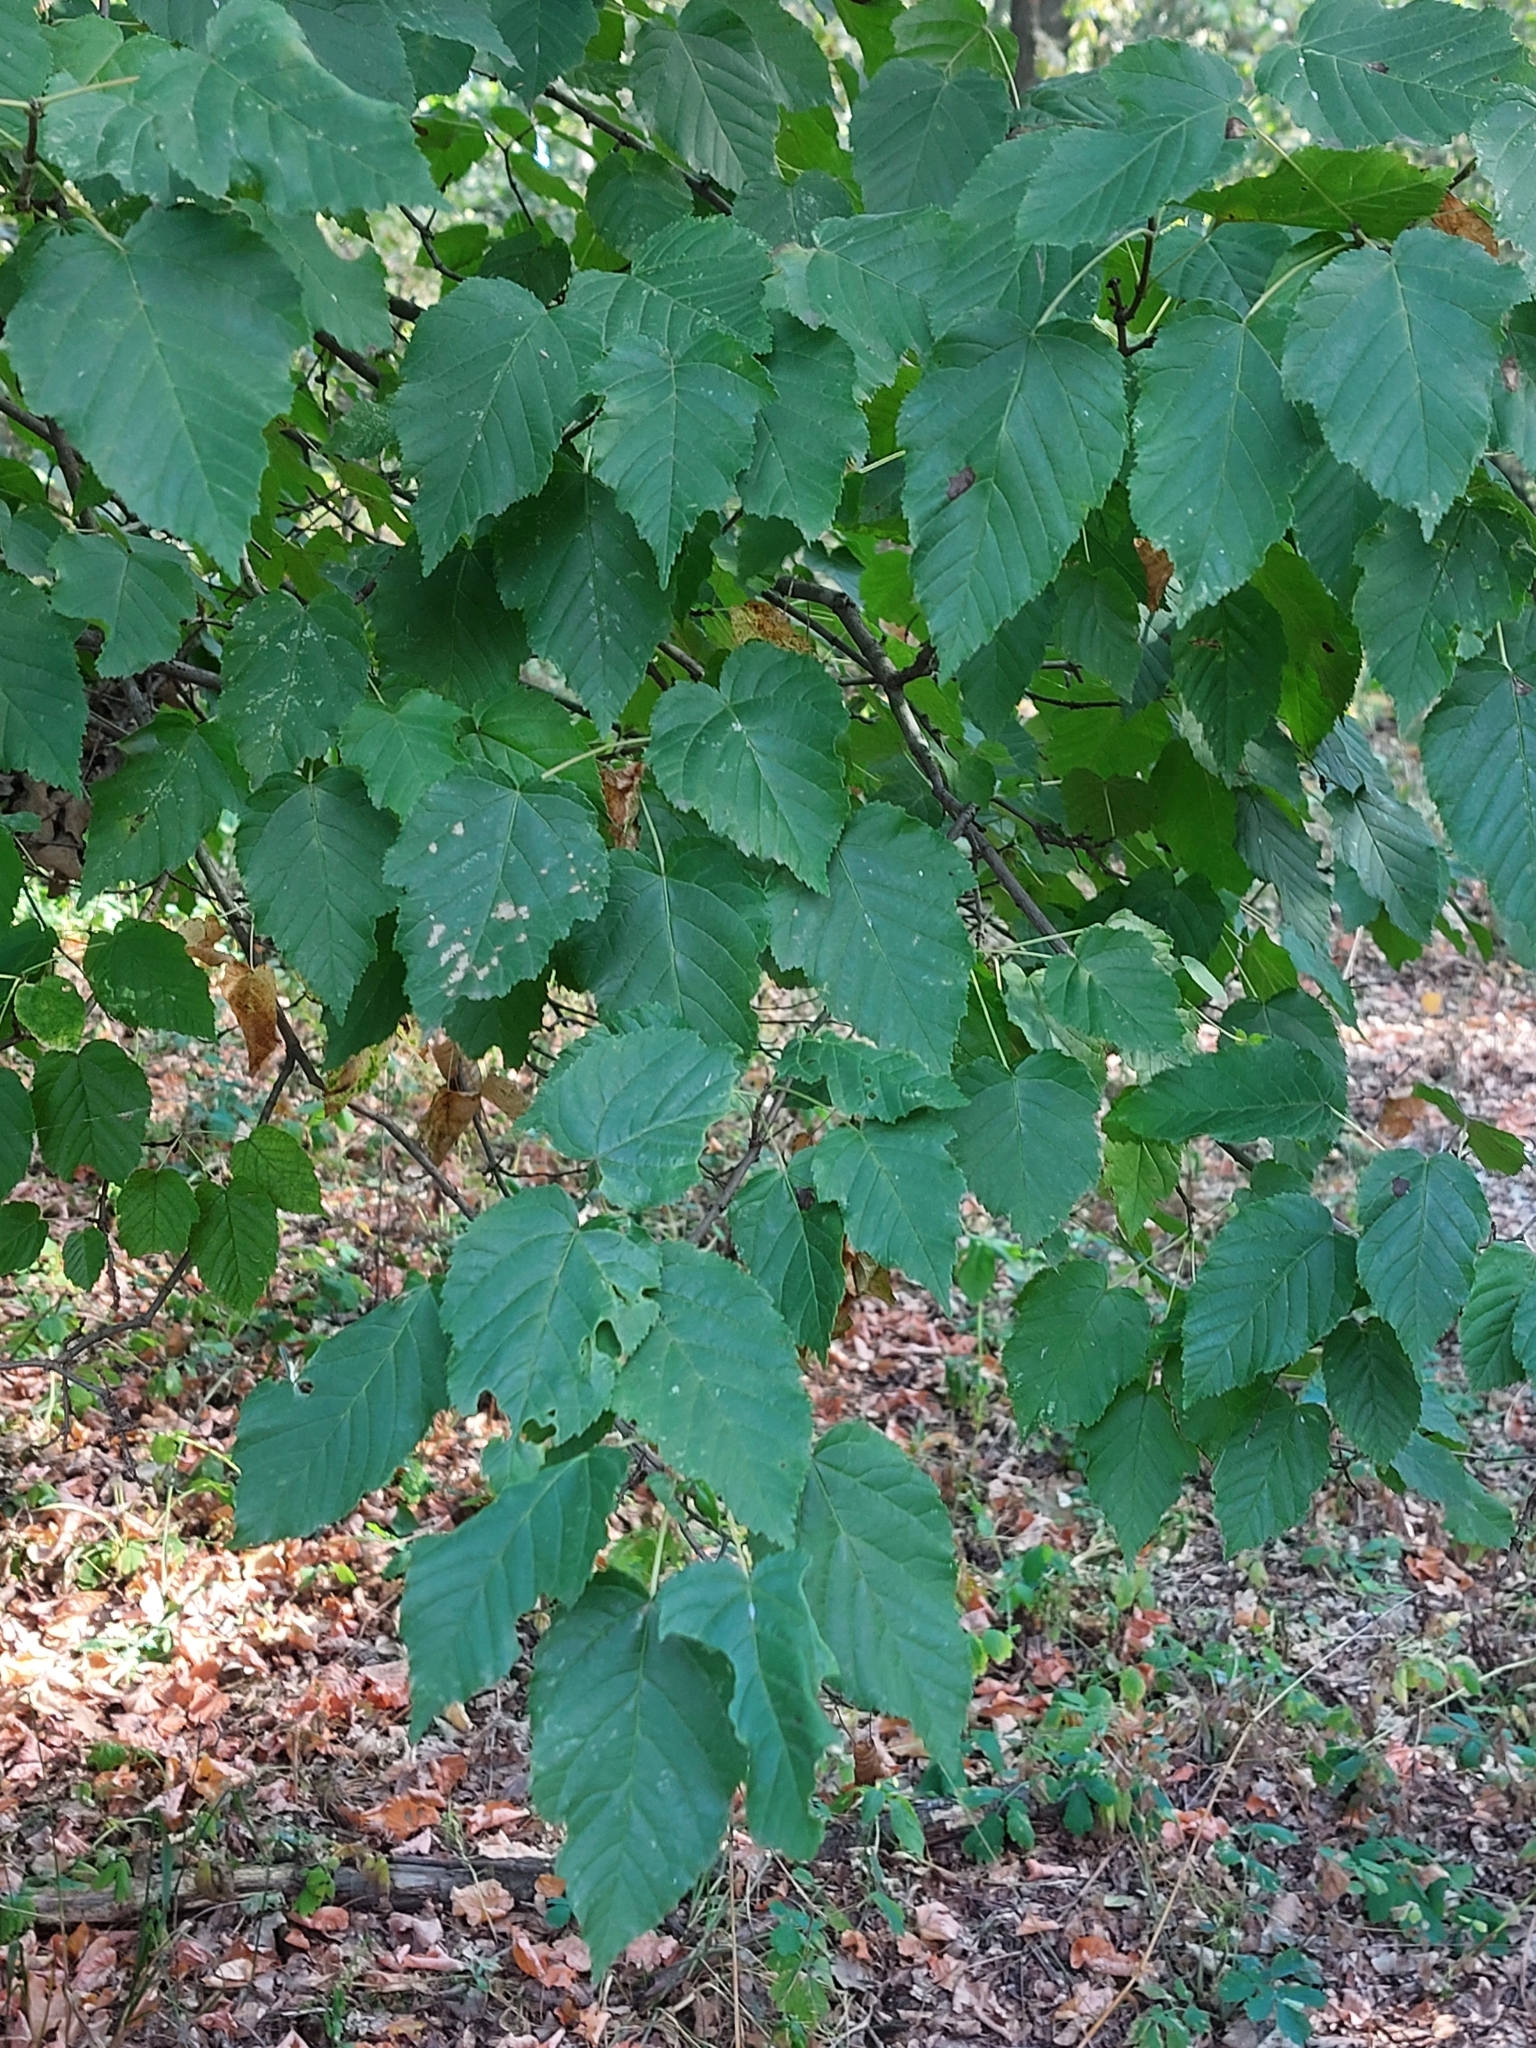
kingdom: Plantae
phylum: Tracheophyta
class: Magnoliopsida
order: Sapindales
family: Sapindaceae
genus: Acer
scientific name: Acer tataricum
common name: Tartar maple
